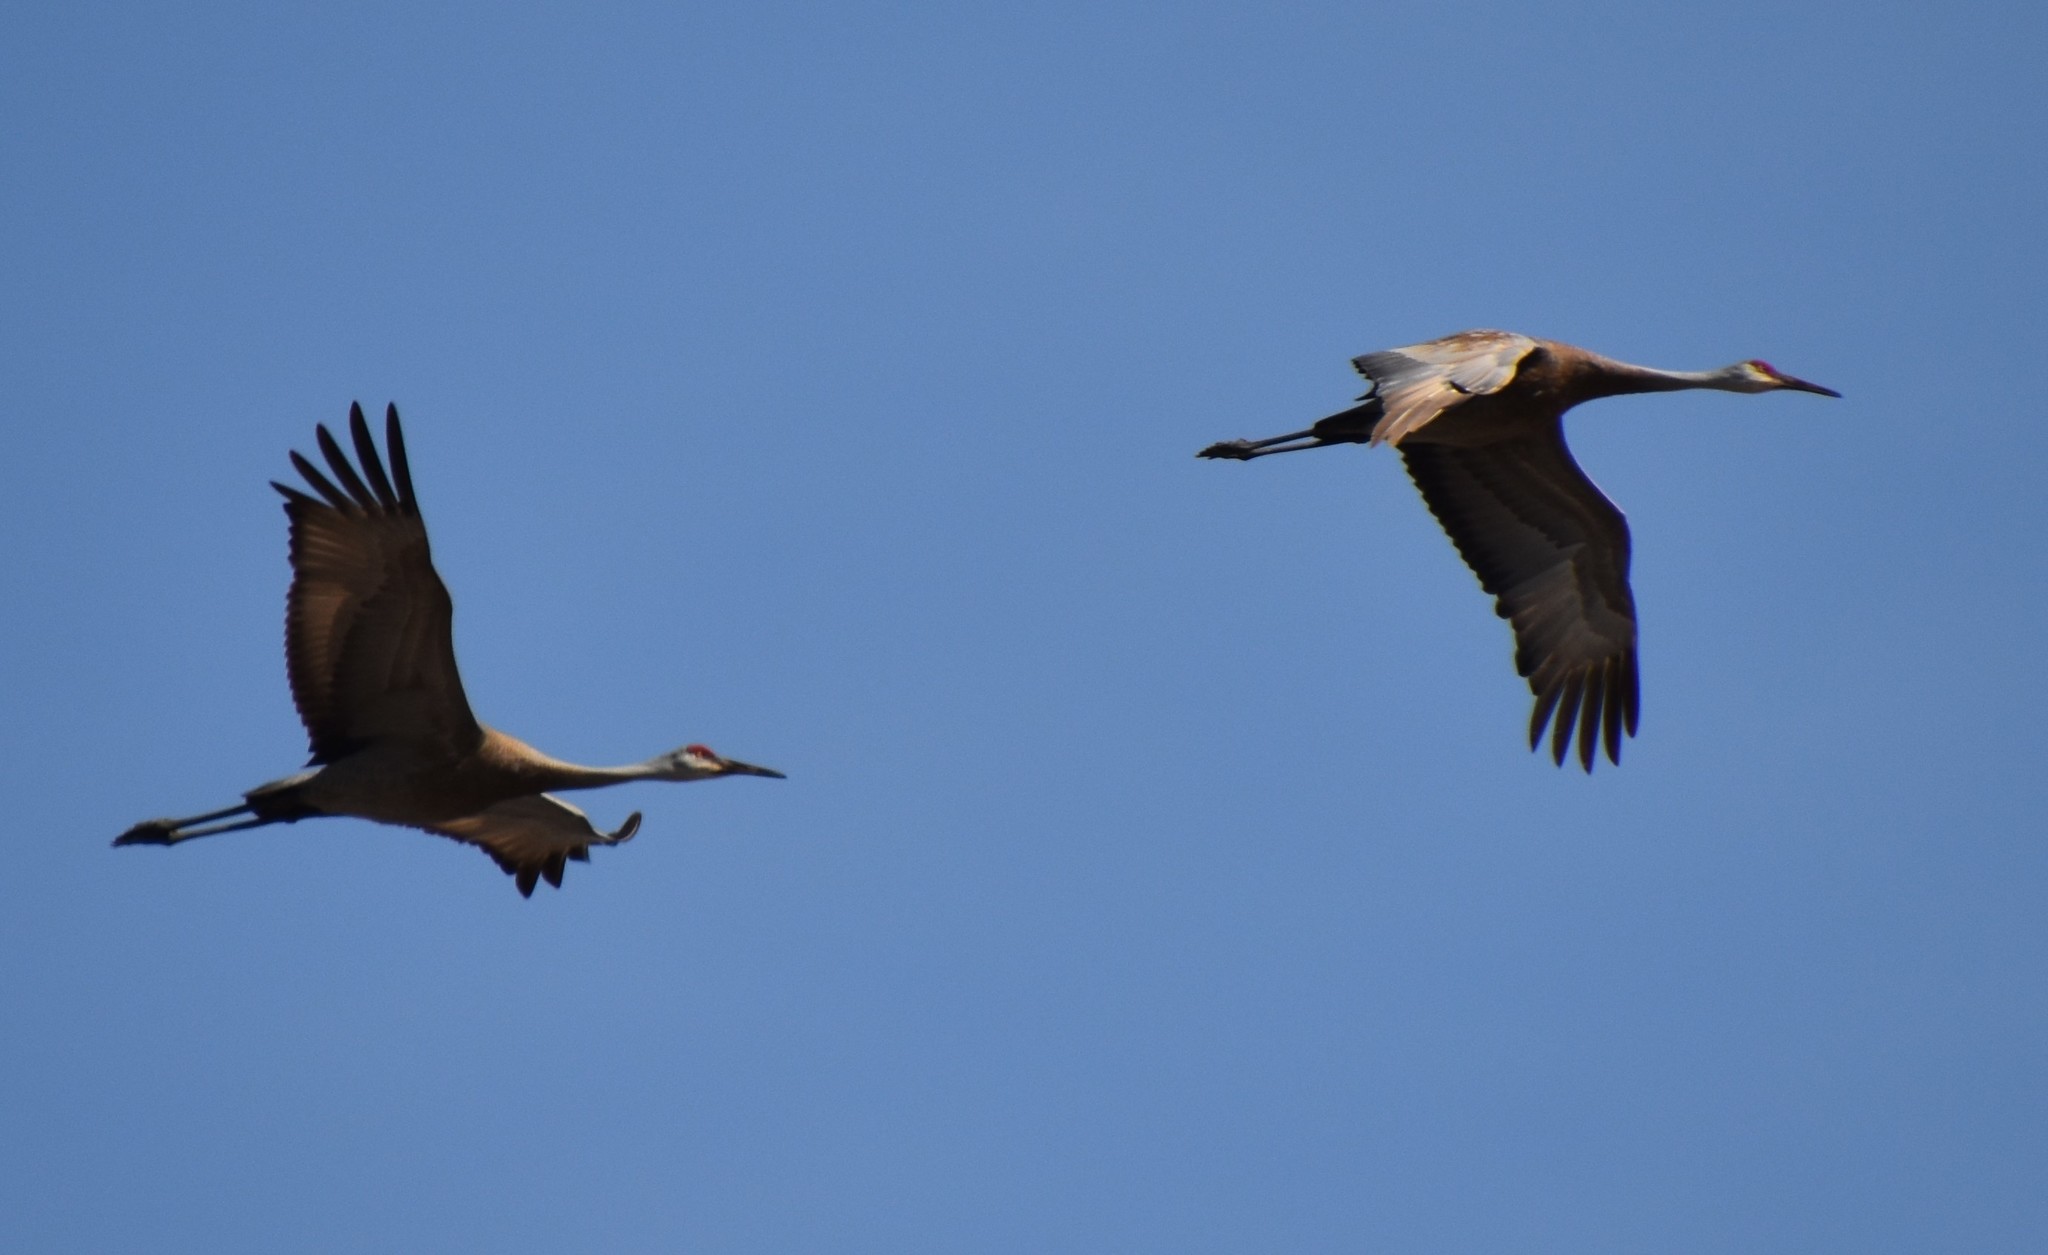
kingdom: Animalia
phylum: Chordata
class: Aves
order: Gruiformes
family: Gruidae
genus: Grus
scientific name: Grus canadensis
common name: Sandhill crane
